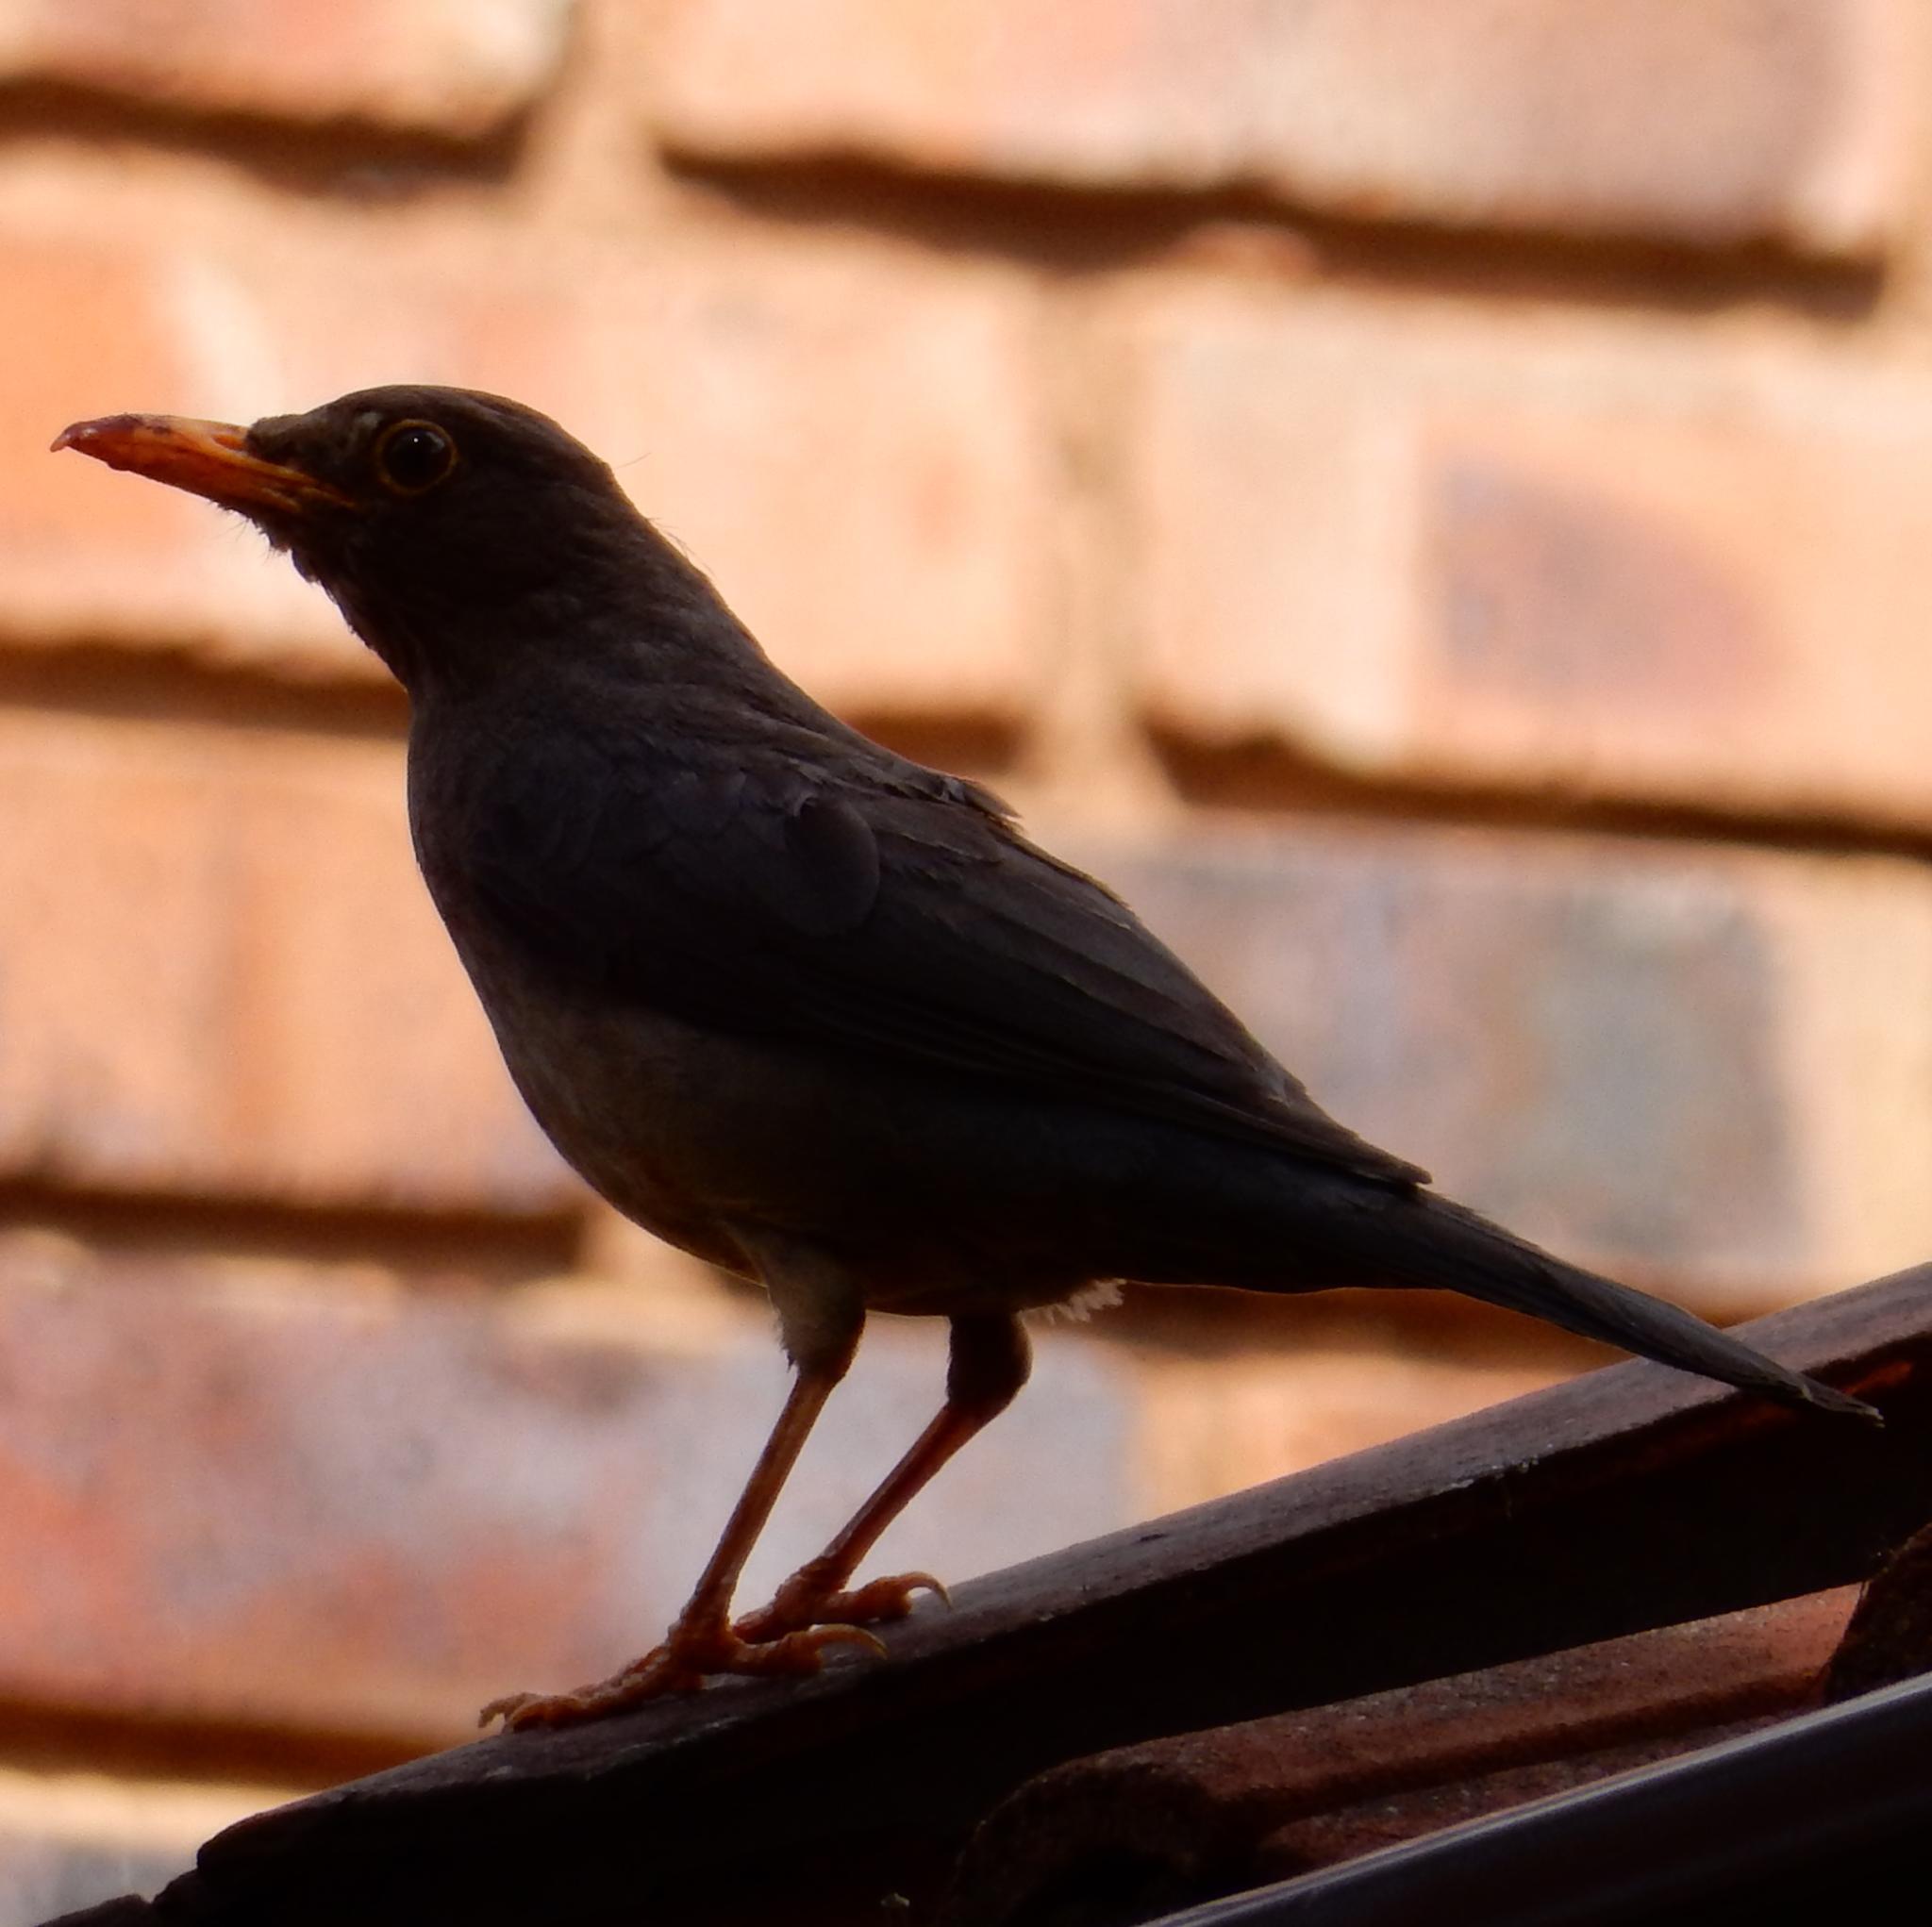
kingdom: Animalia
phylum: Chordata
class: Aves
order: Passeriformes
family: Turdidae
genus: Turdus
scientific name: Turdus smithi
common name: Karoo thrush
